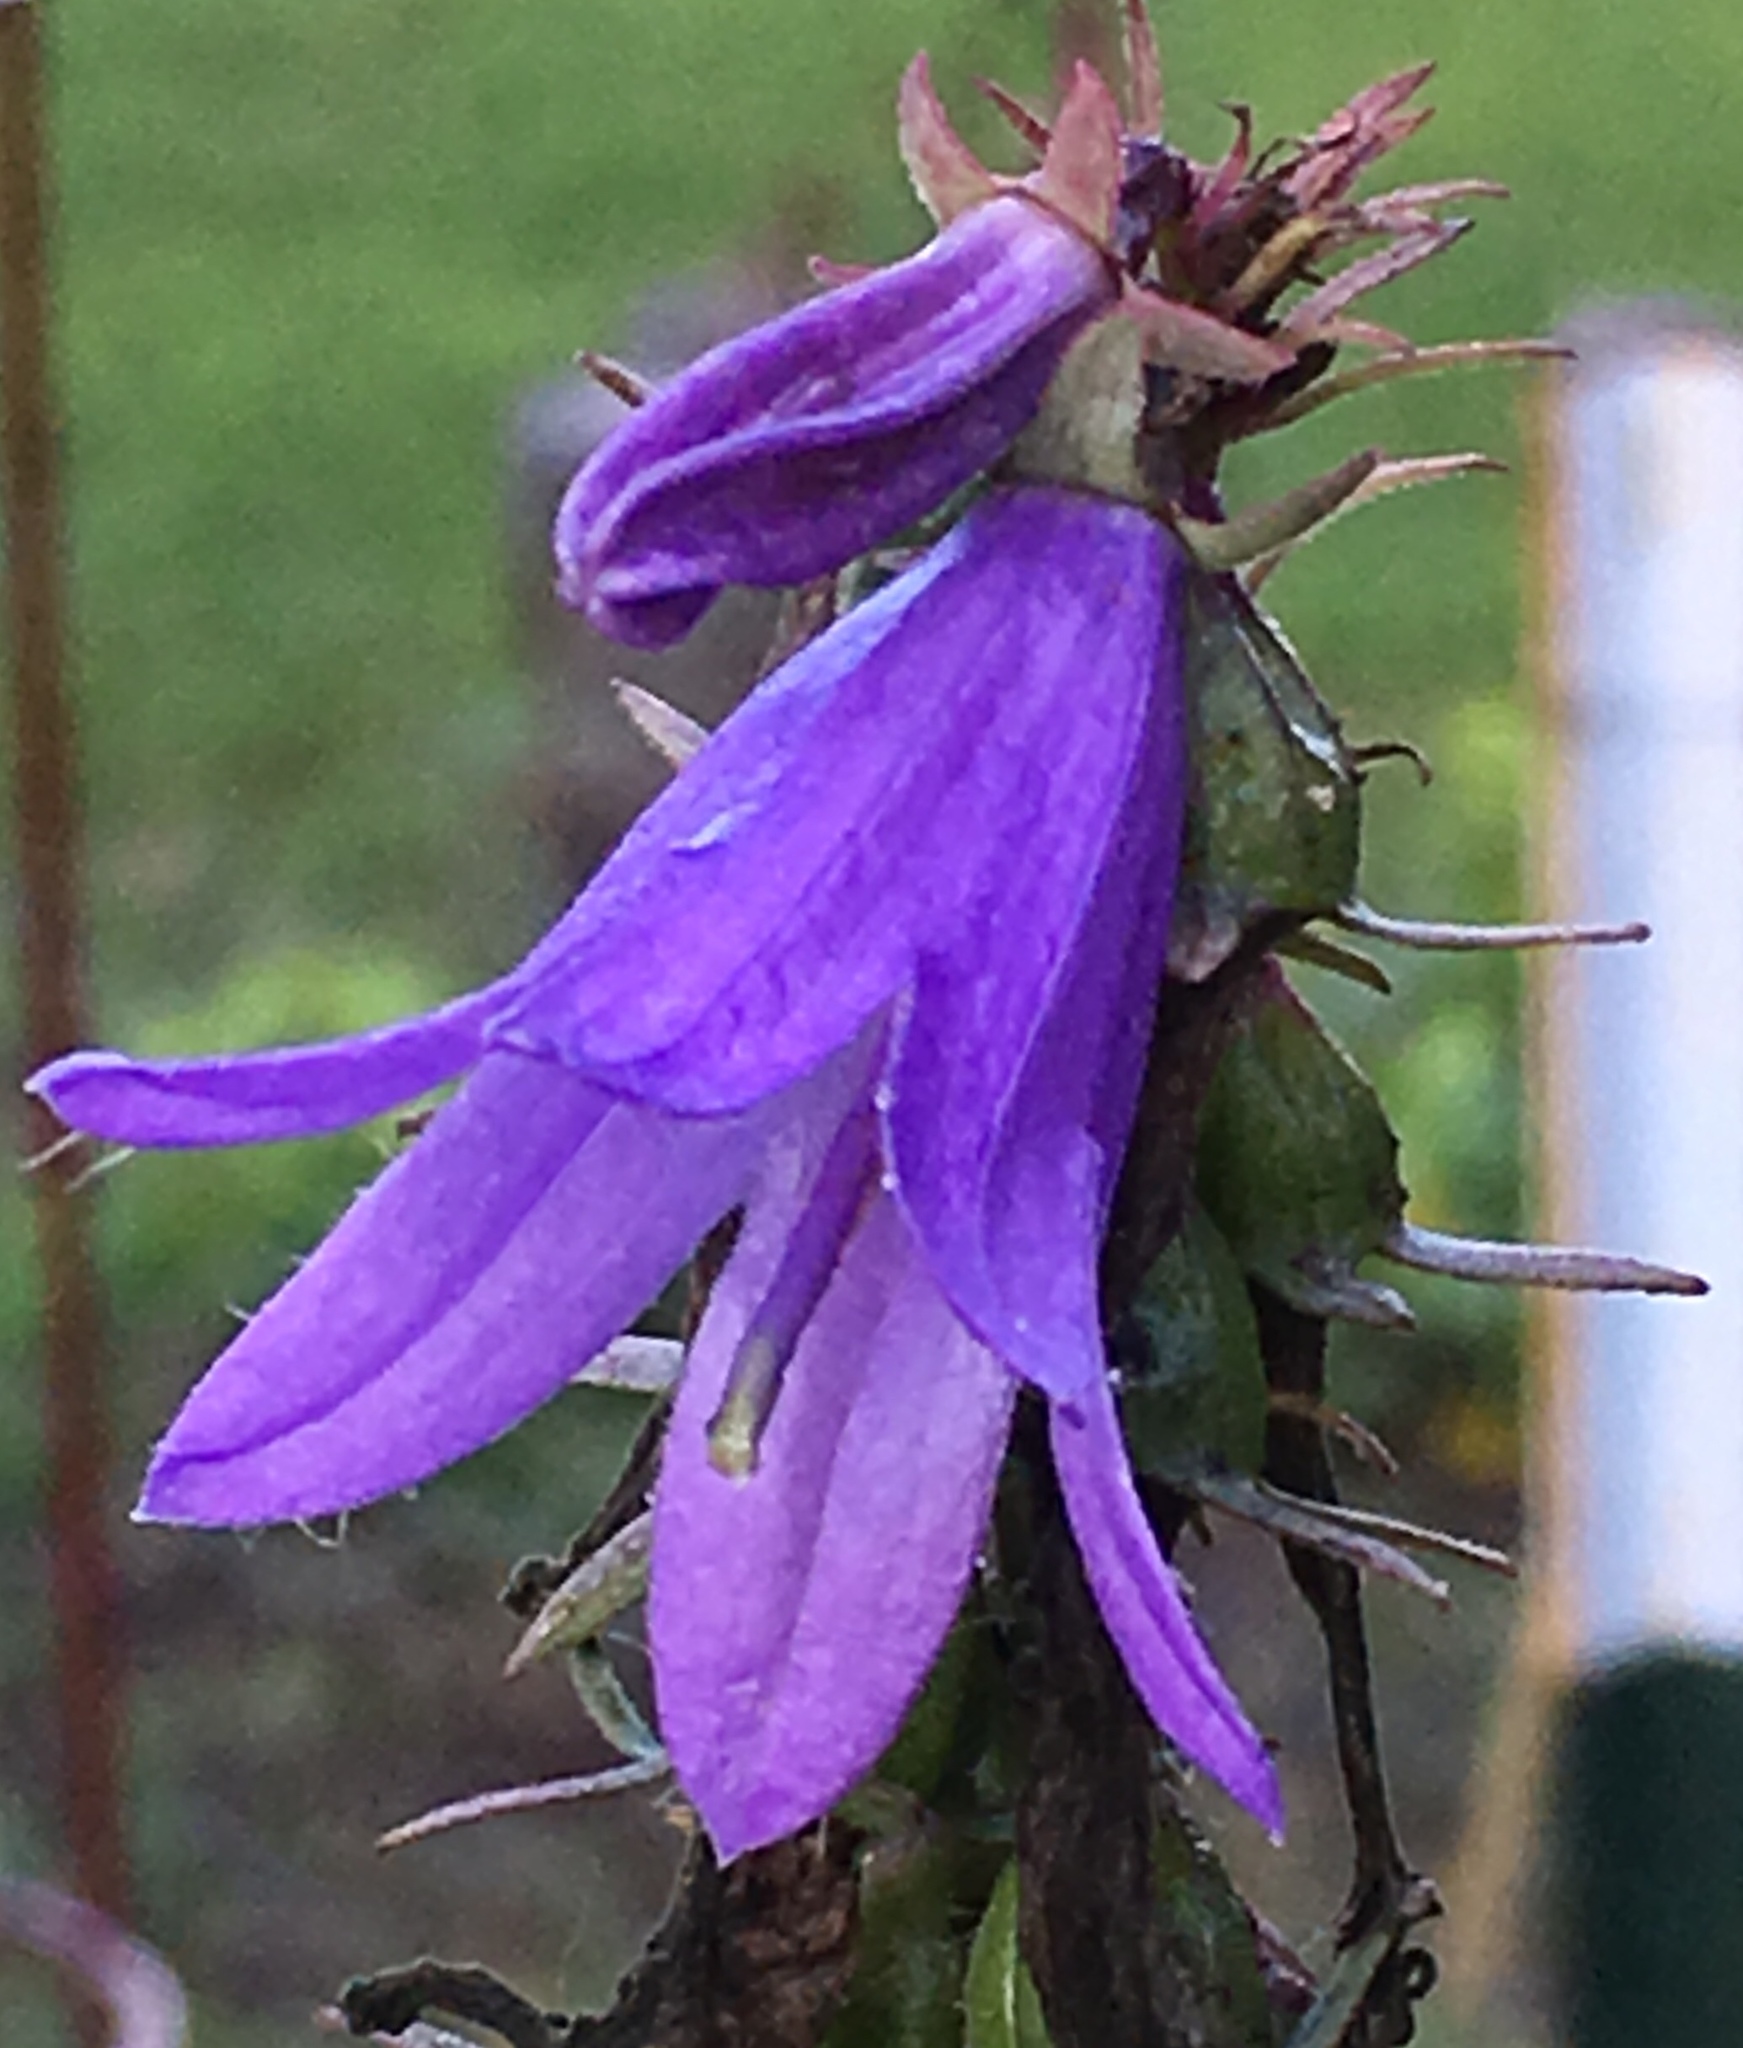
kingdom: Plantae
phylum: Tracheophyta
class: Magnoliopsida
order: Asterales
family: Campanulaceae
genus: Campanula
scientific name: Campanula rapunculoides
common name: Creeping bellflower
